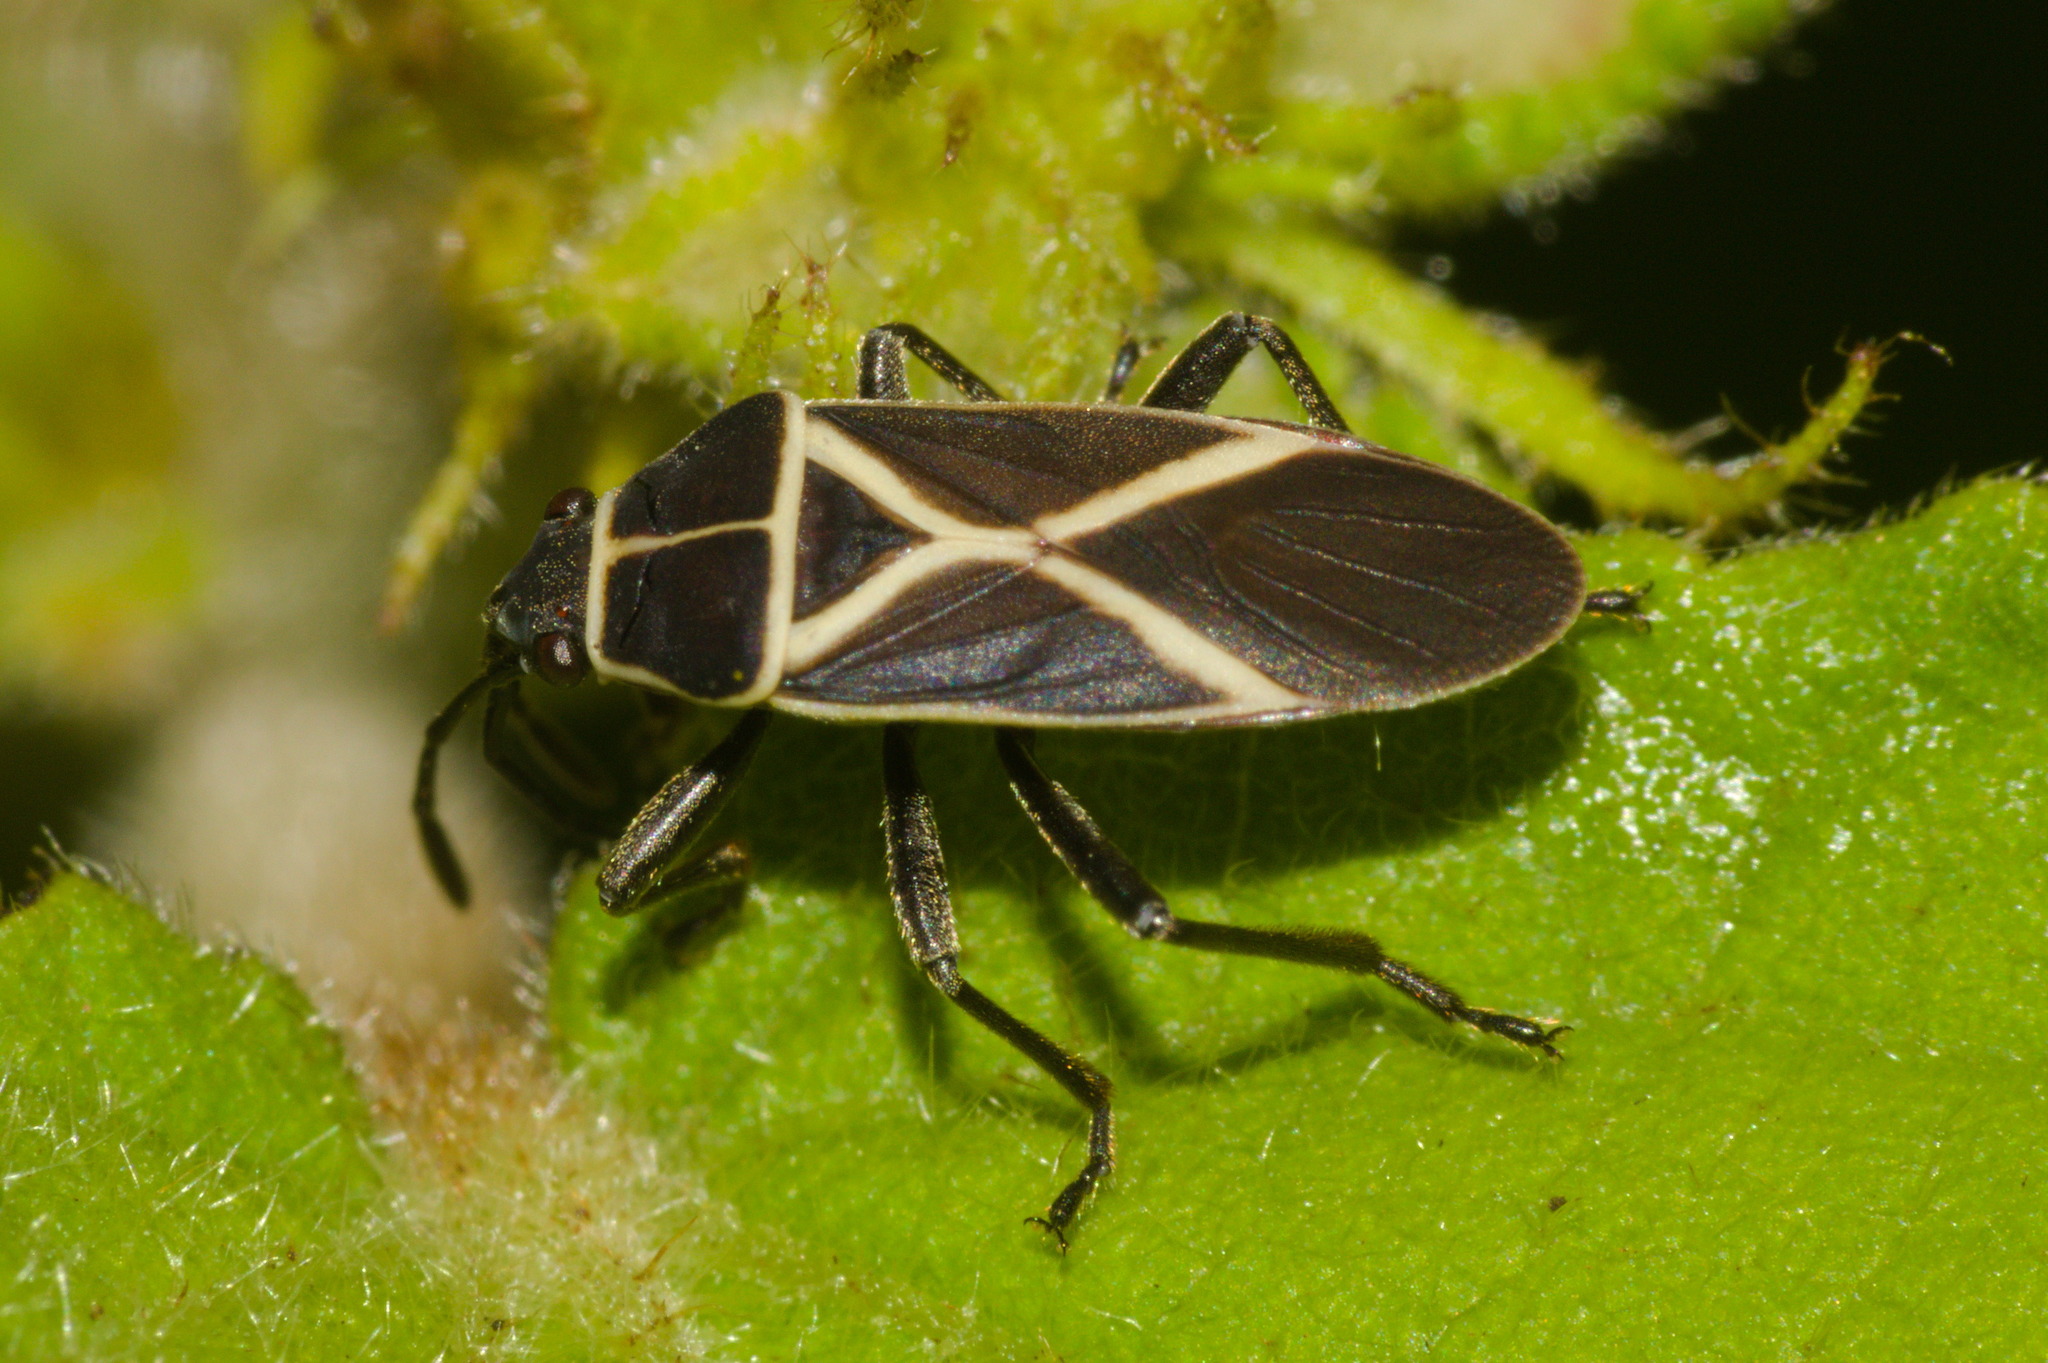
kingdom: Animalia
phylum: Arthropoda
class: Insecta
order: Hemiptera
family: Lygaeidae
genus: Craspeduchus
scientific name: Craspeduchus xanthostaurus
